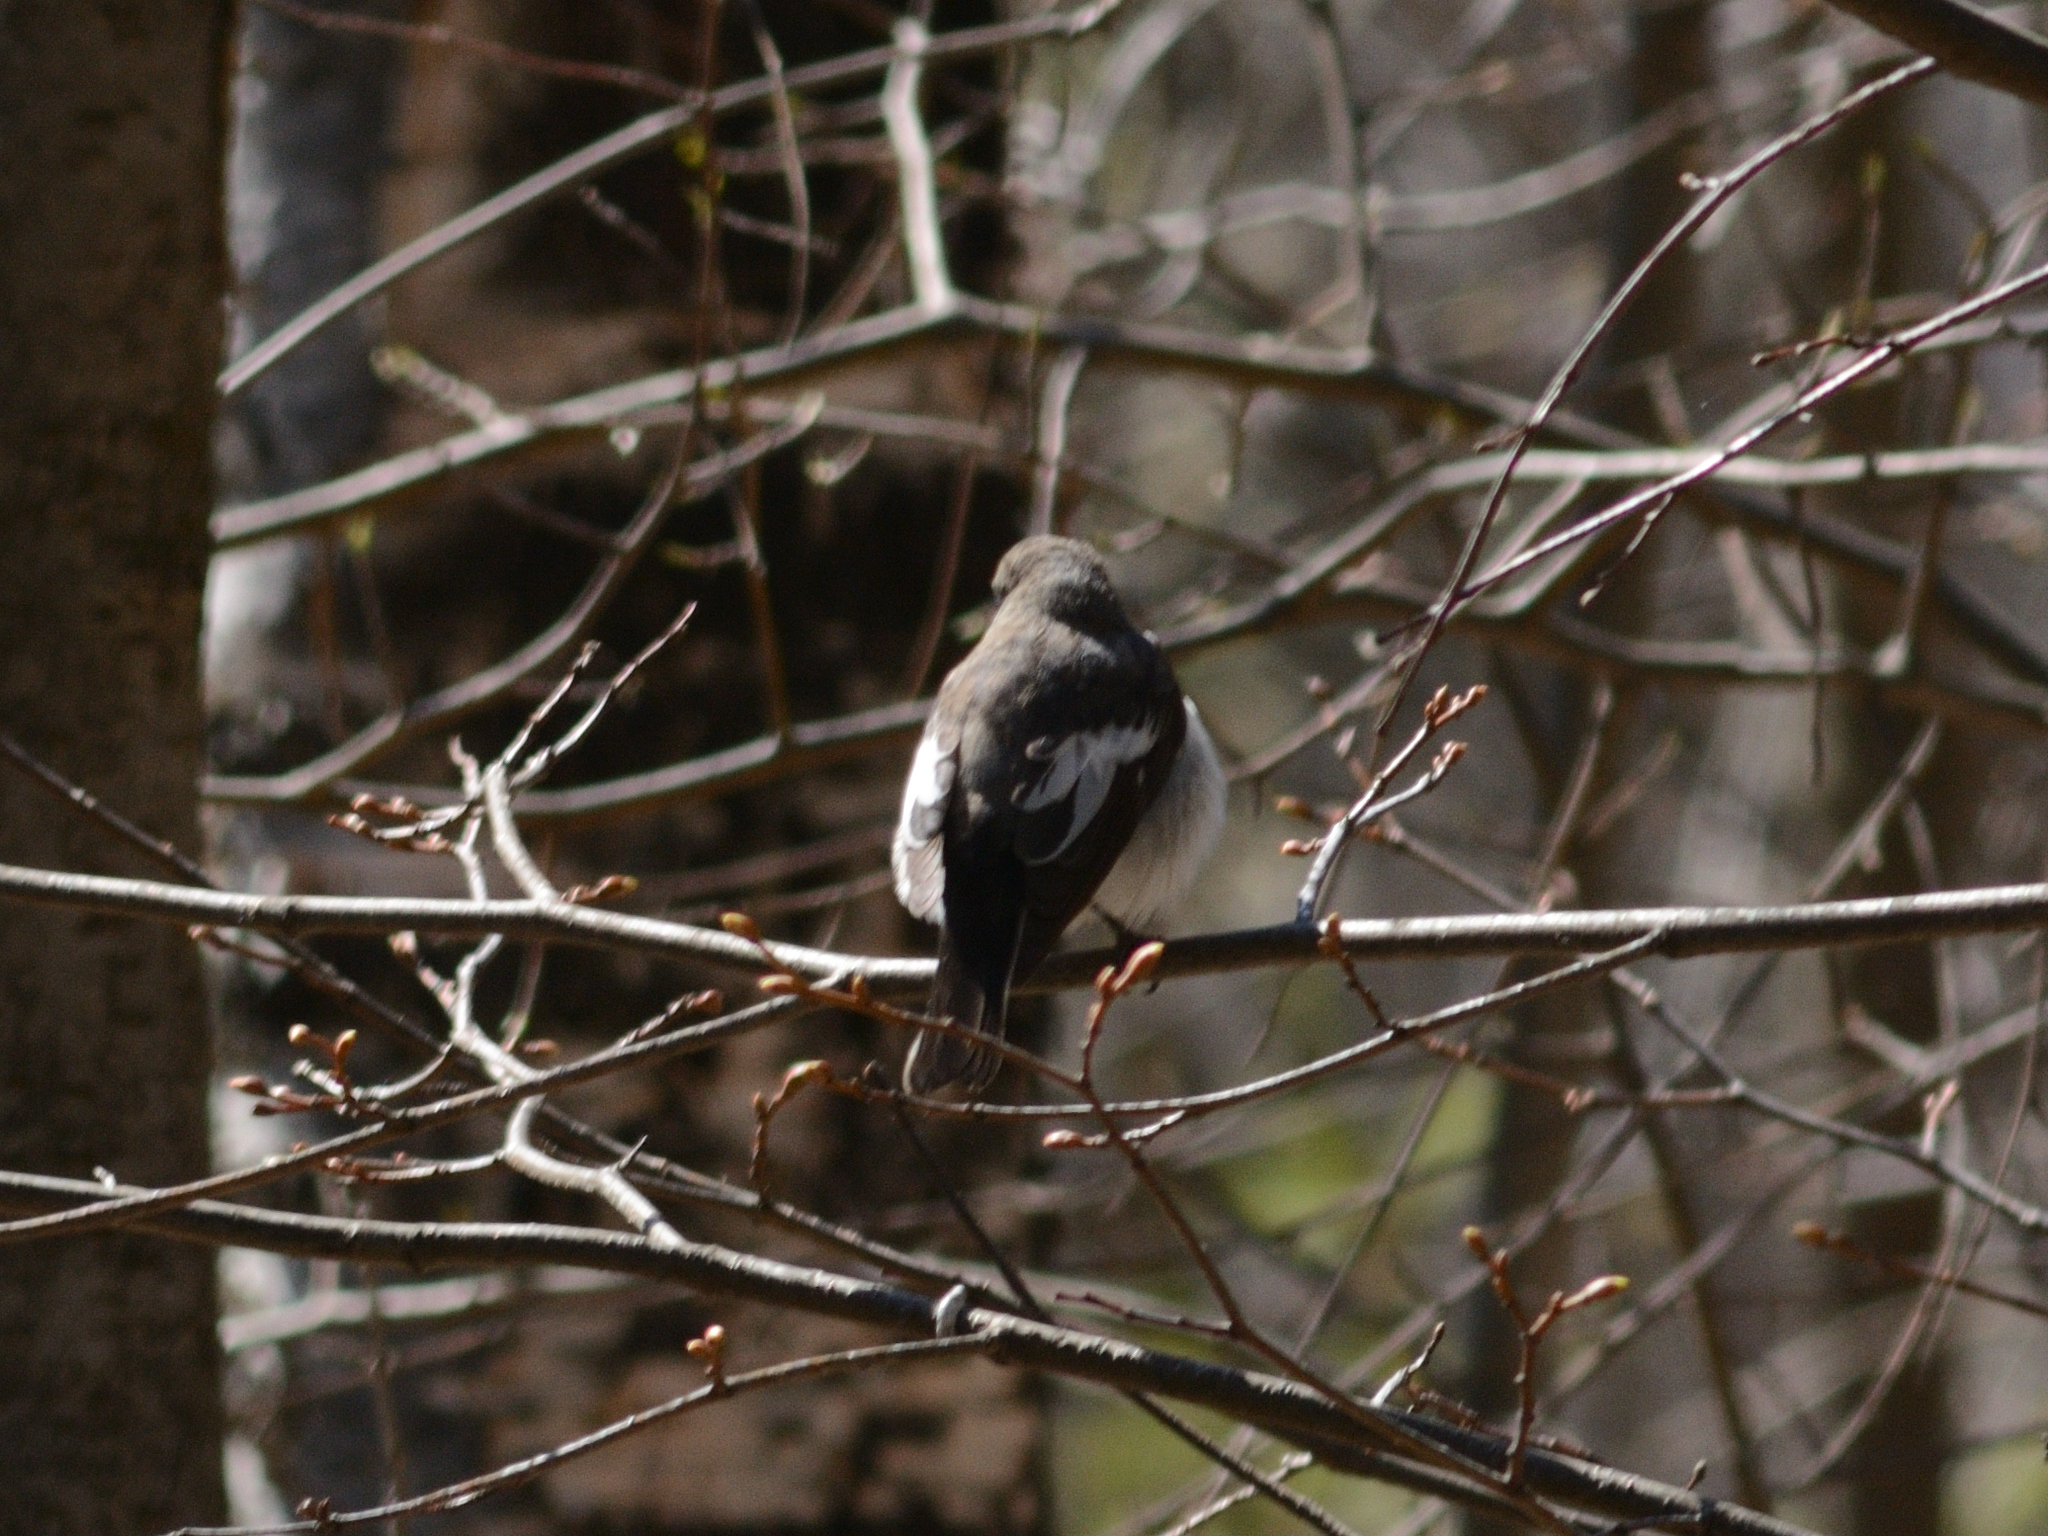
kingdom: Animalia
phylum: Chordata
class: Aves
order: Passeriformes
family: Muscicapidae
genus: Ficedula
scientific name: Ficedula hypoleuca
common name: European pied flycatcher
